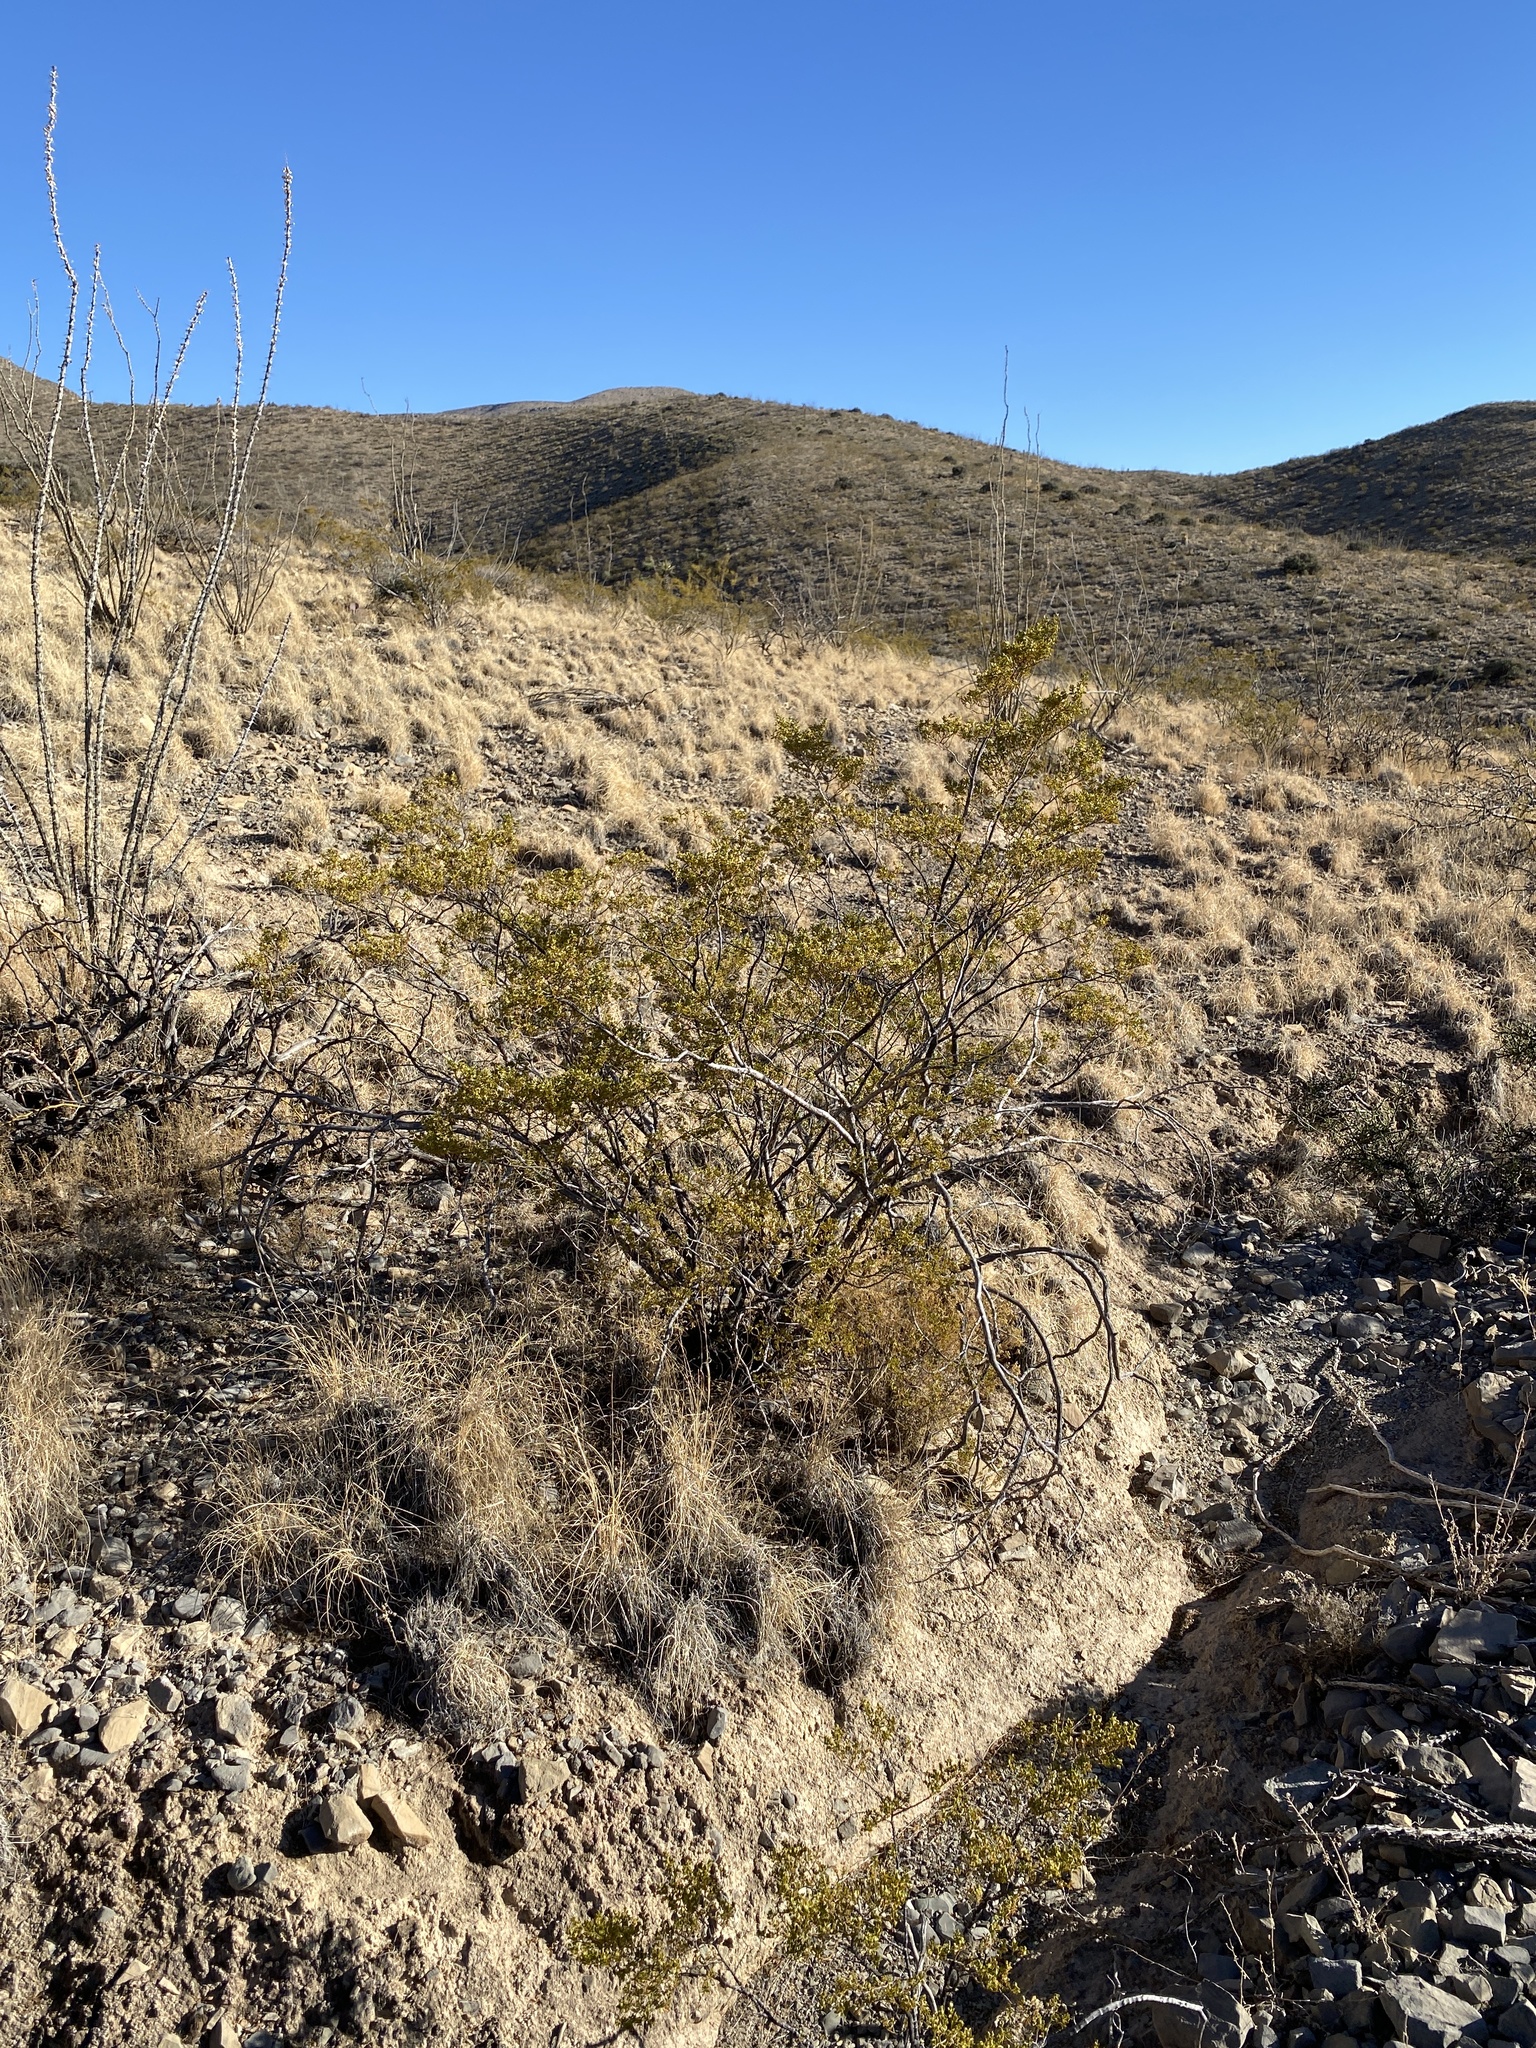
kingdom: Plantae
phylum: Tracheophyta
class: Magnoliopsida
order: Zygophyllales
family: Zygophyllaceae
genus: Larrea
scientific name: Larrea tridentata
